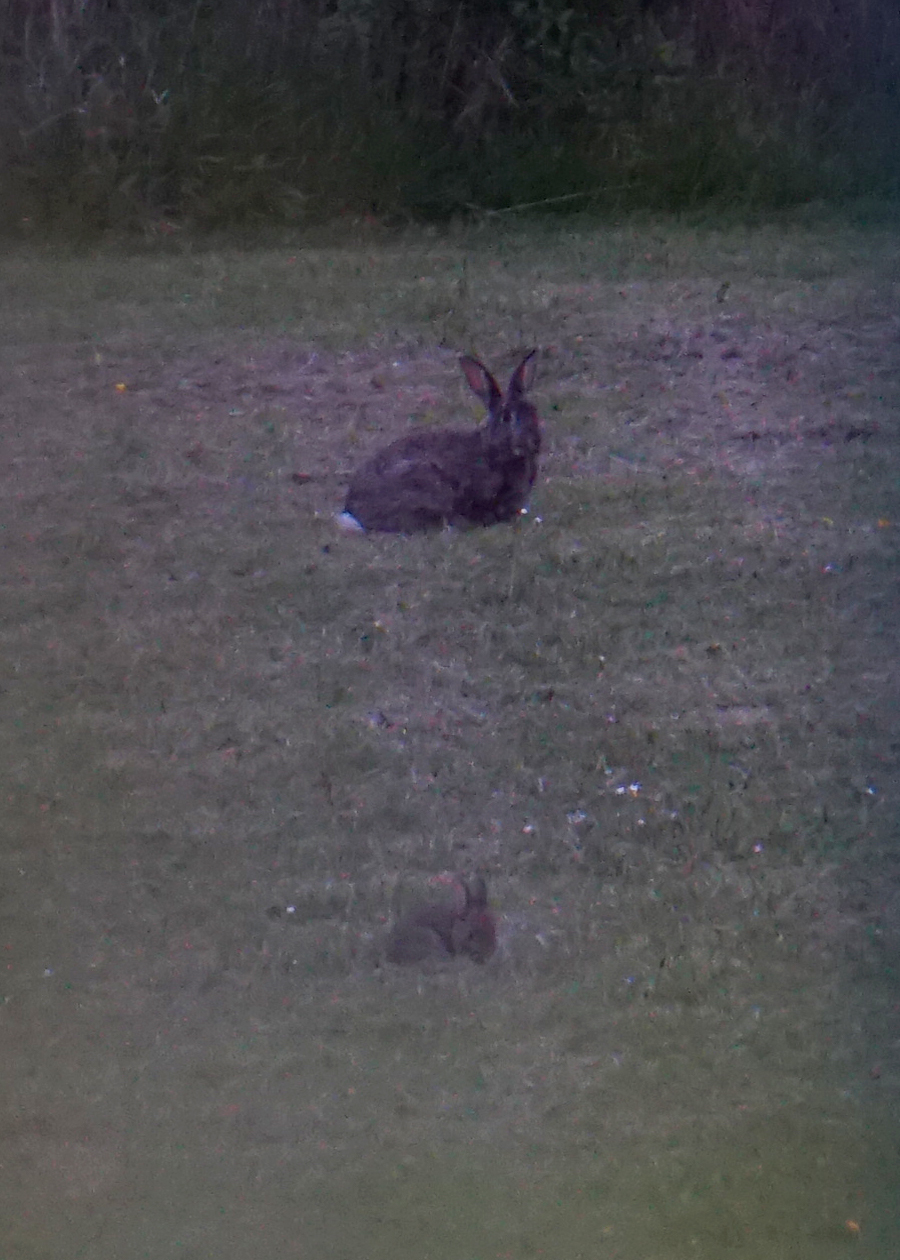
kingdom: Animalia
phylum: Chordata
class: Mammalia
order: Lagomorpha
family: Leporidae
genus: Oryctolagus
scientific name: Oryctolagus cuniculus
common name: European rabbit
